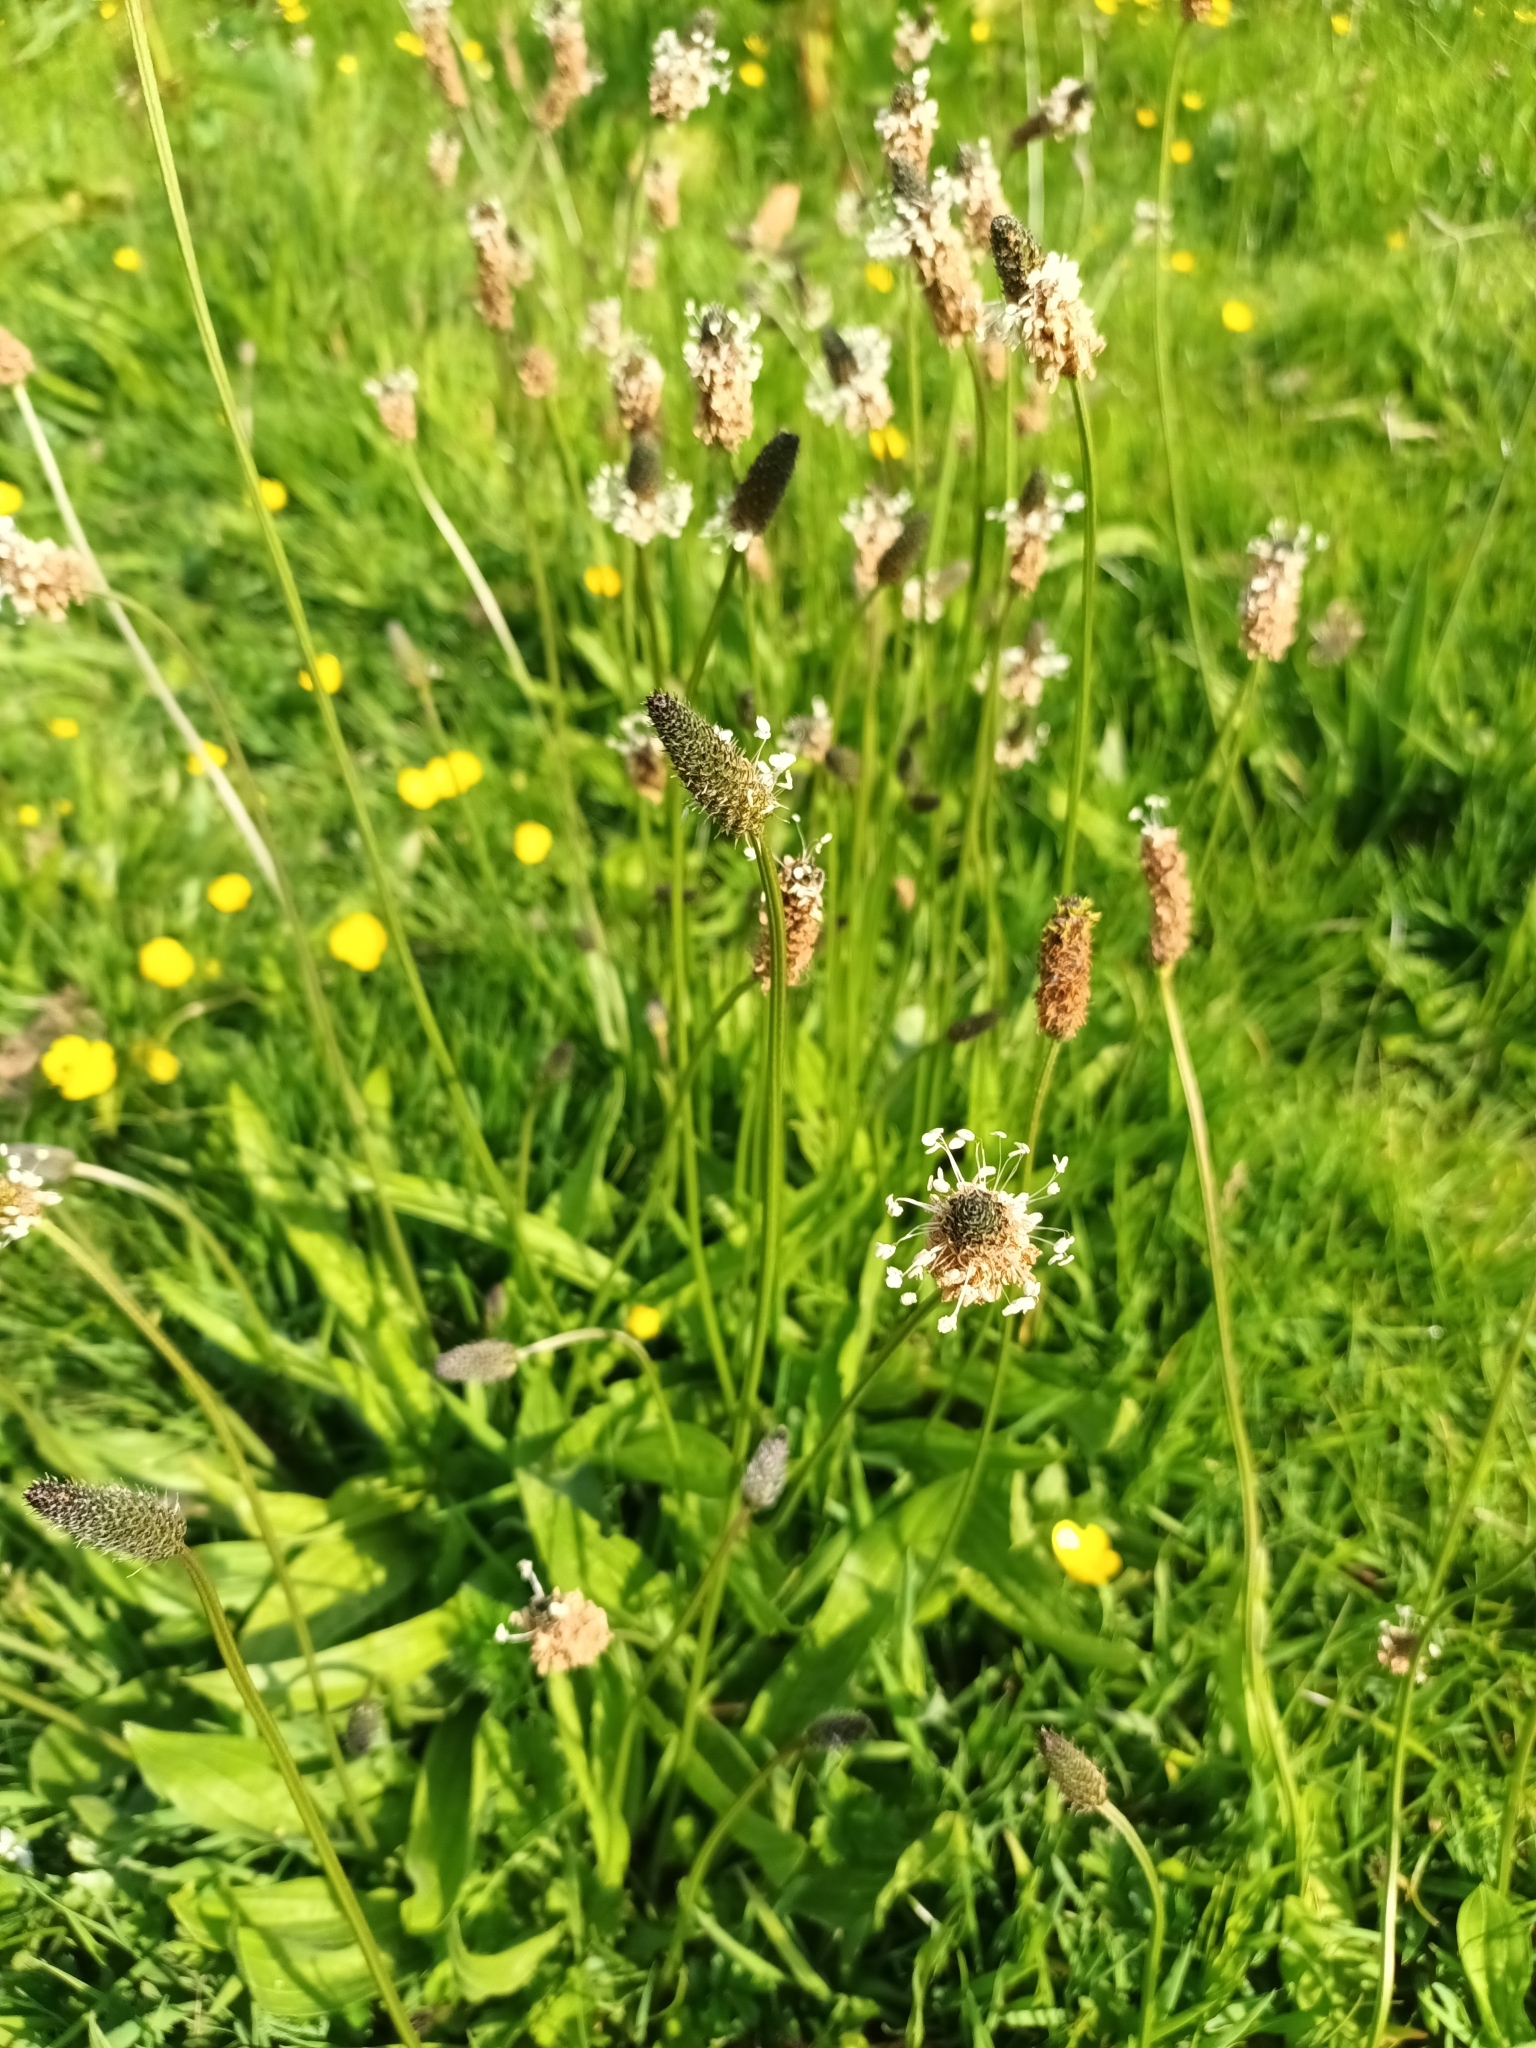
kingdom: Plantae
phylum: Tracheophyta
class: Magnoliopsida
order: Lamiales
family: Plantaginaceae
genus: Plantago
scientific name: Plantago lanceolata
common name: Ribwort plantain
